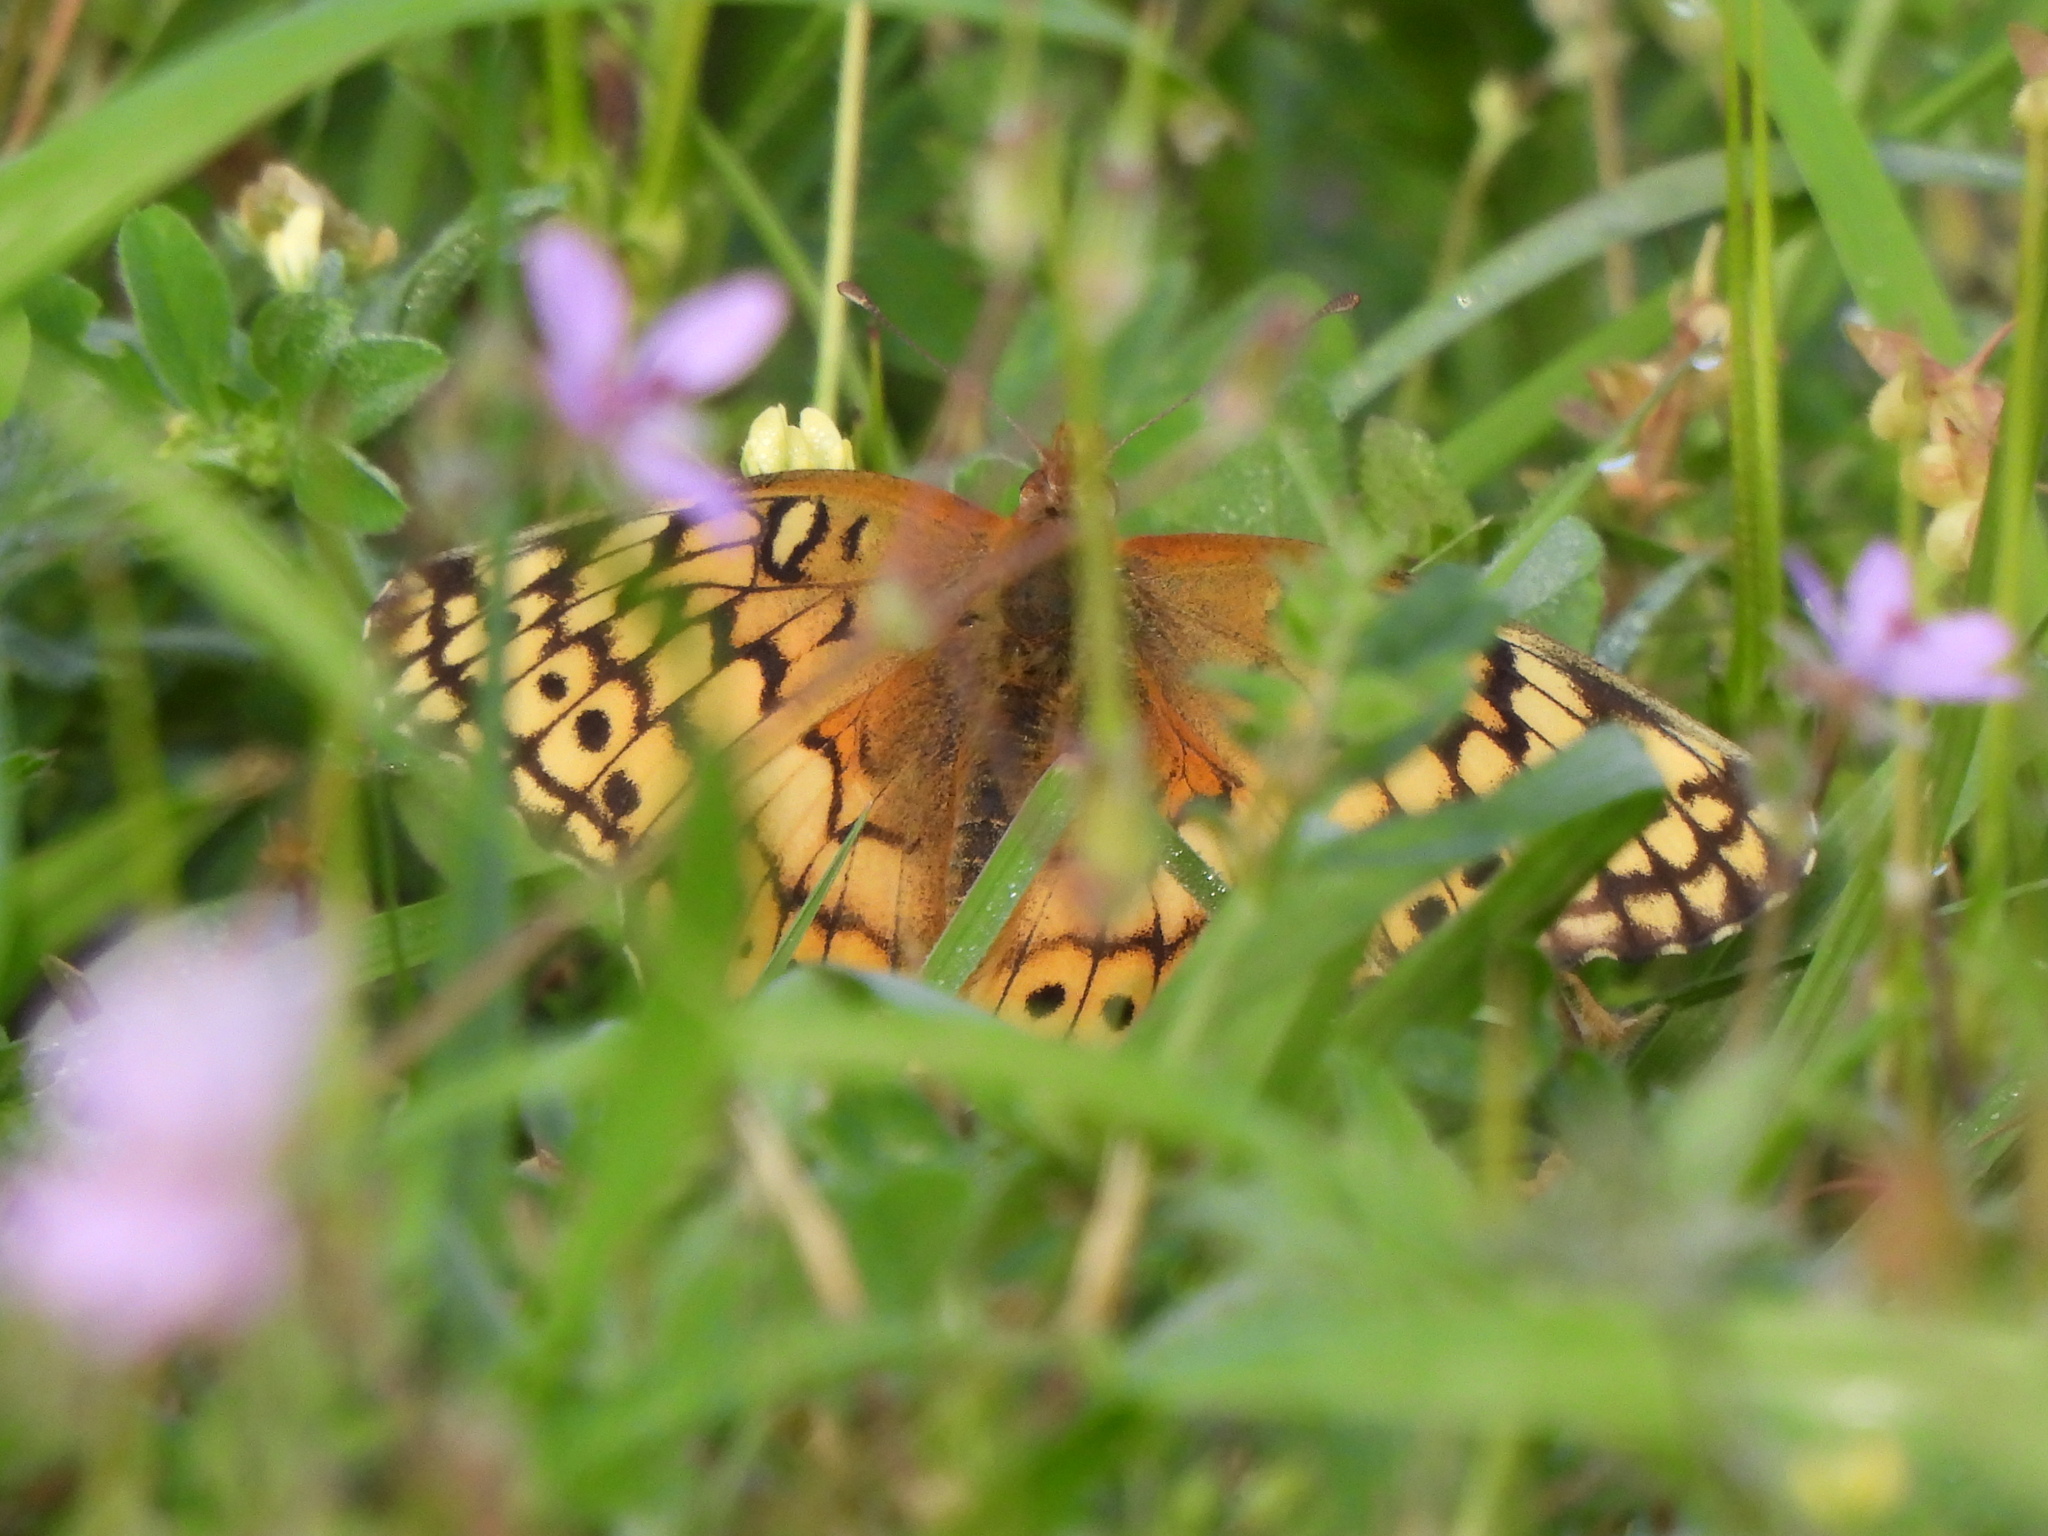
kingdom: Animalia
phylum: Arthropoda
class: Insecta
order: Lepidoptera
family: Nymphalidae
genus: Euptoieta
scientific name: Euptoieta claudia
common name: Variegated fritillary
